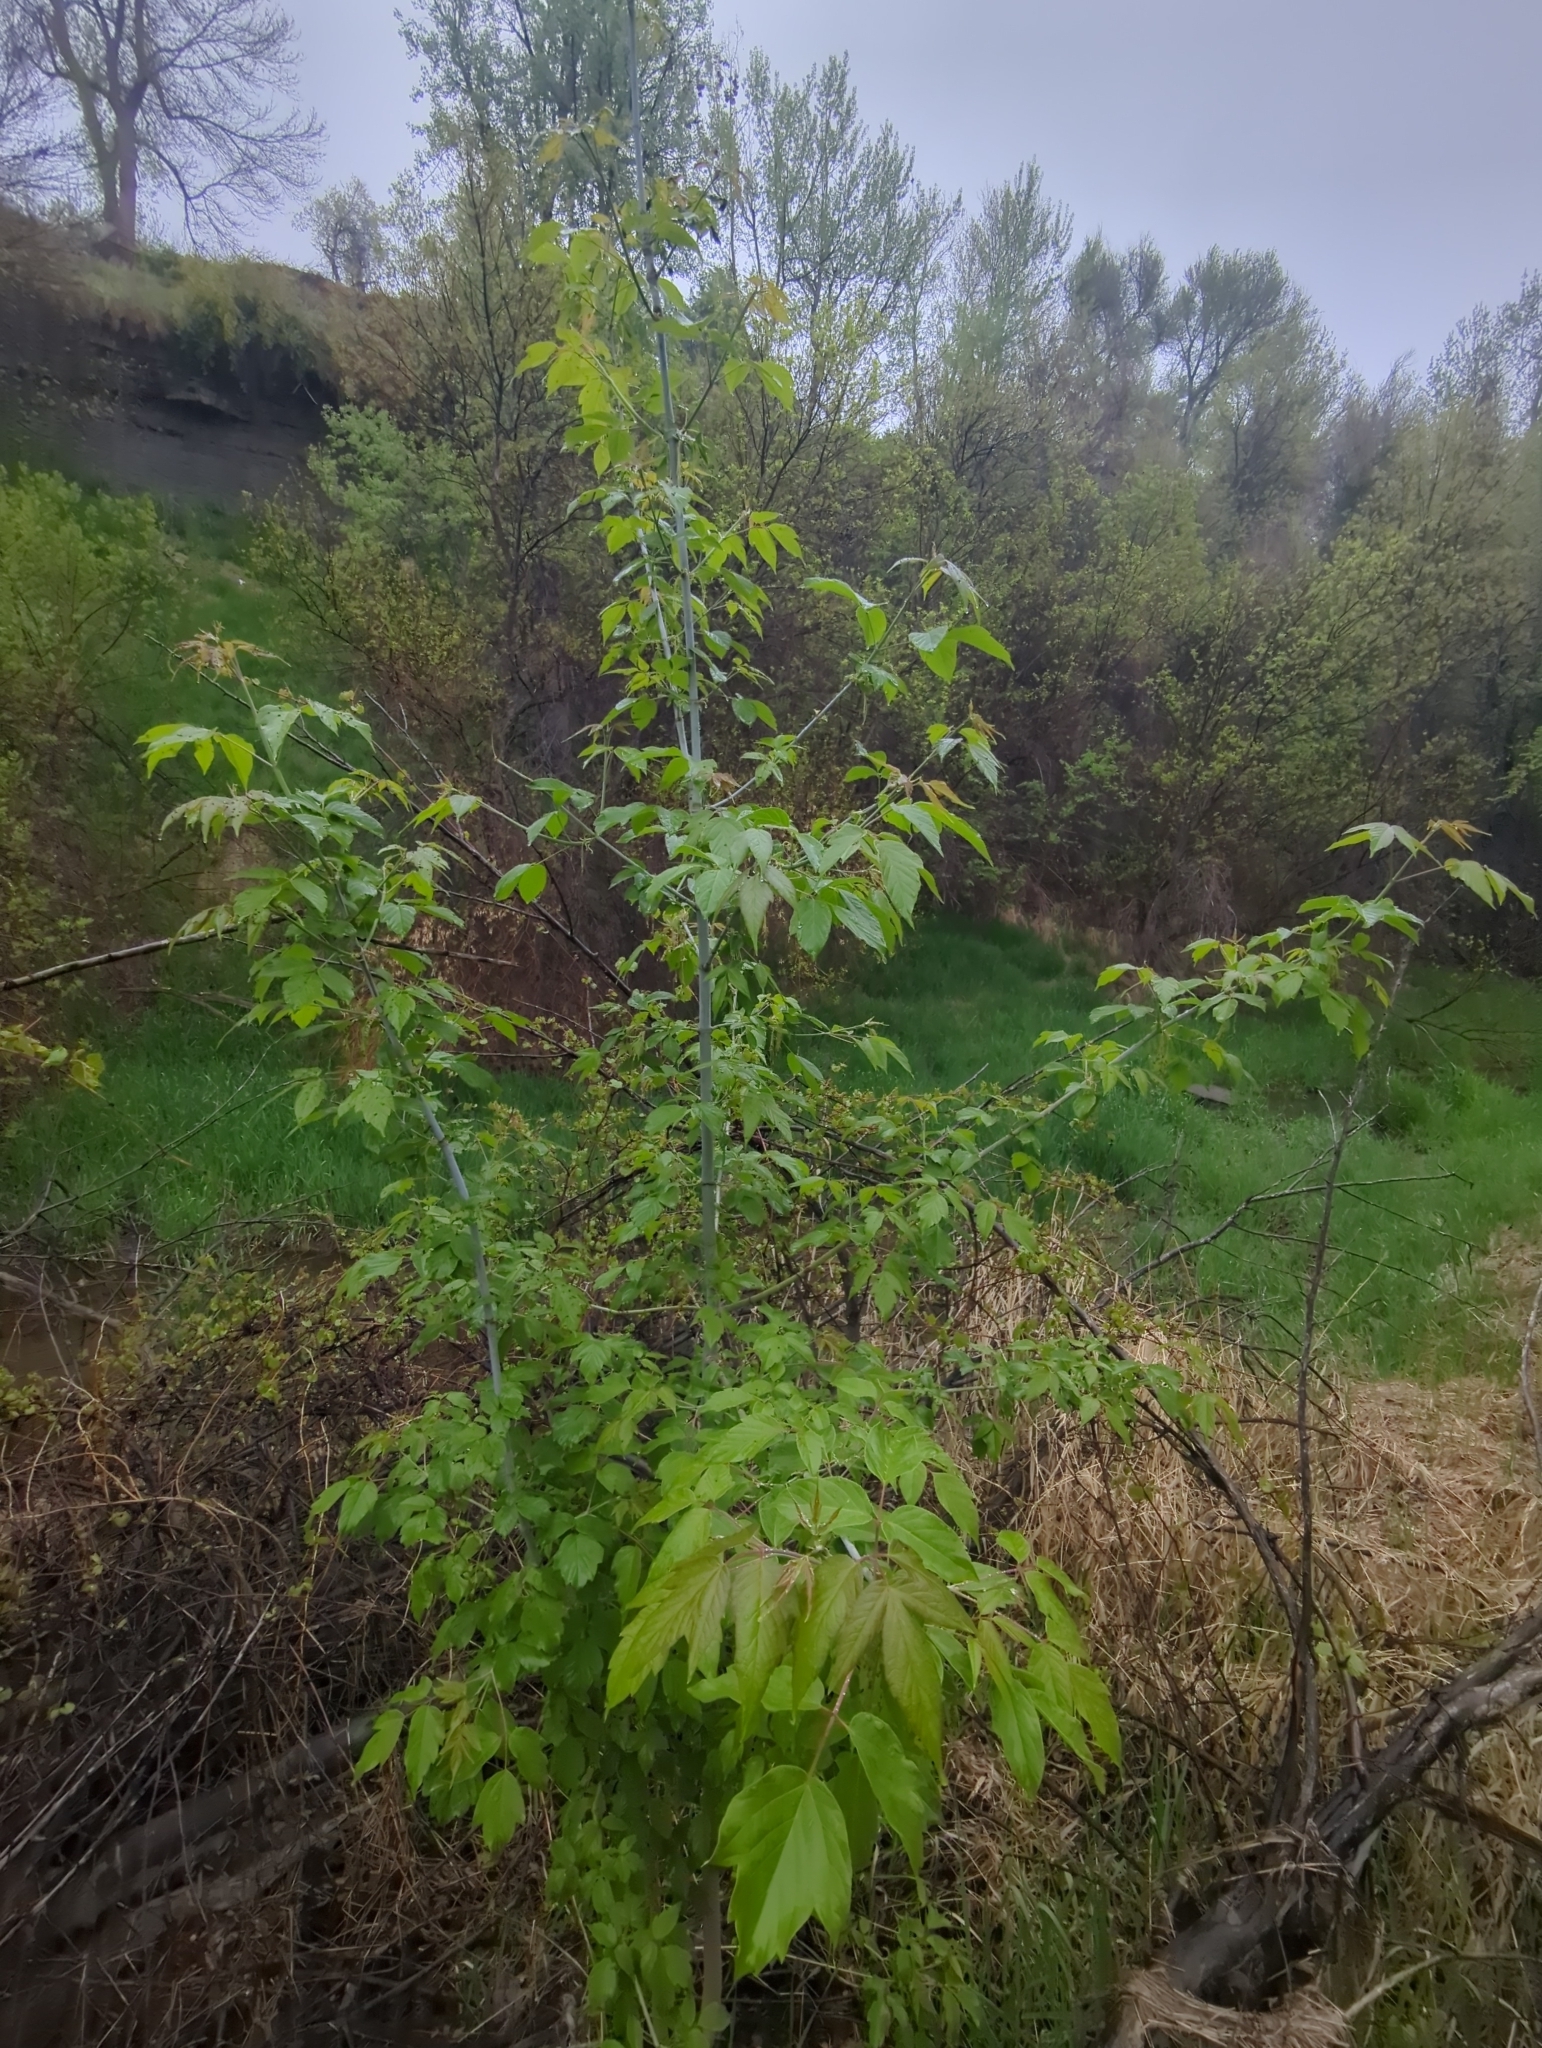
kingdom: Plantae
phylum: Tracheophyta
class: Magnoliopsida
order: Sapindales
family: Sapindaceae
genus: Acer
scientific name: Acer negundo
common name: Ashleaf maple
